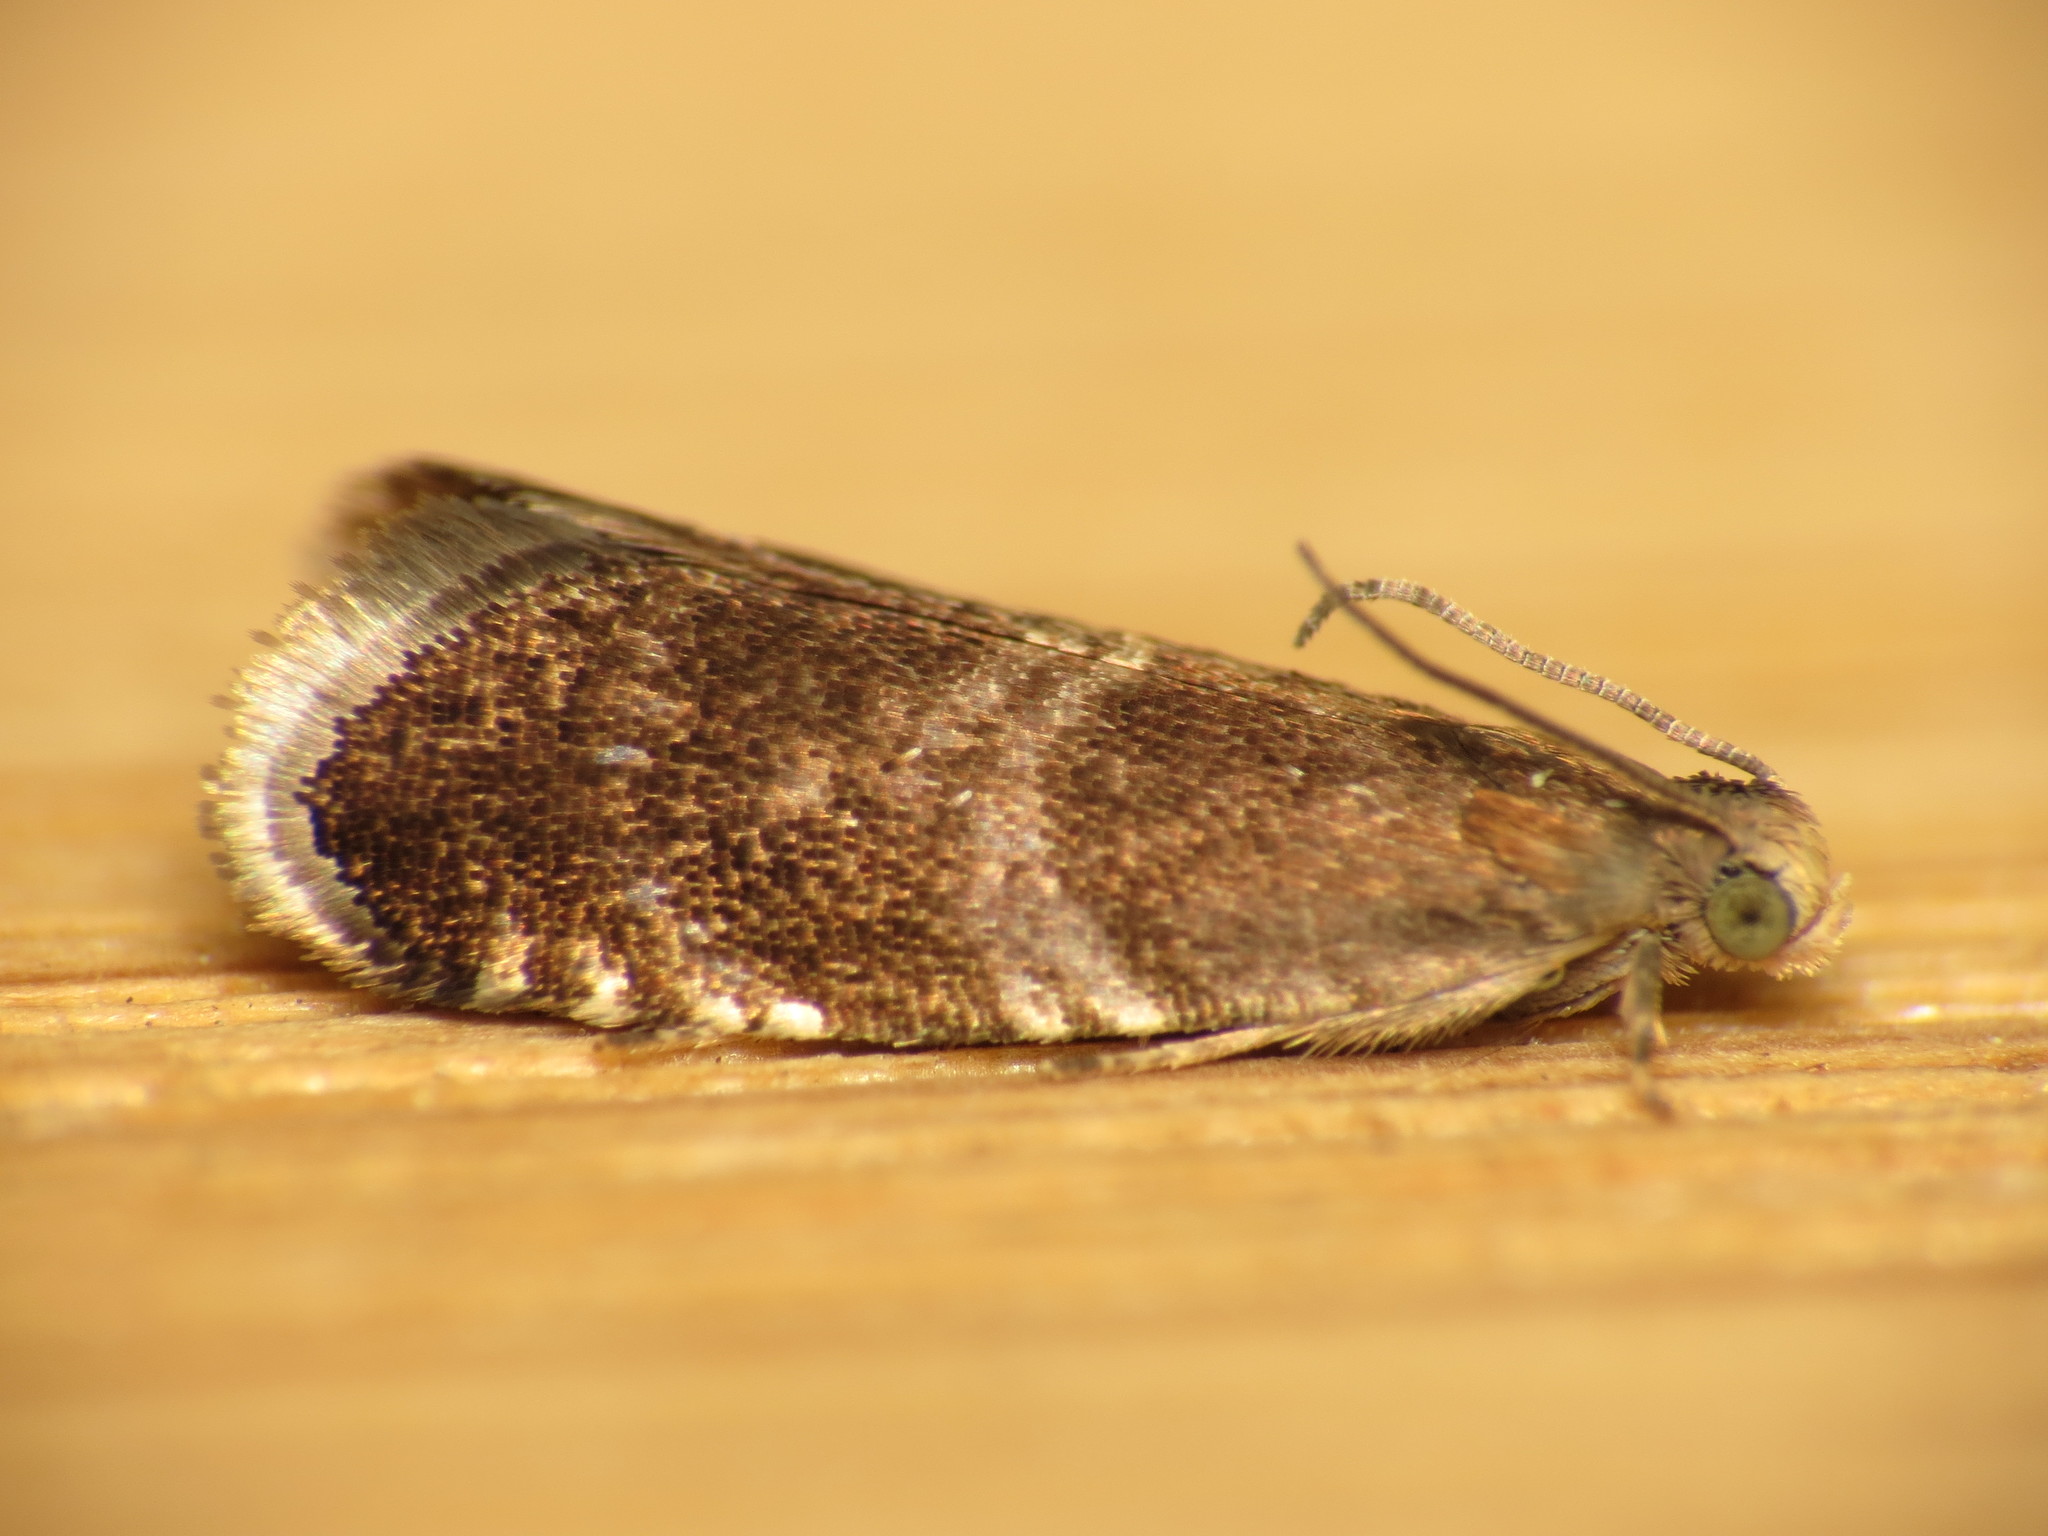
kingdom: Animalia
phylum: Arthropoda
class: Insecta
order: Lepidoptera
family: Tortricidae
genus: Strophedra
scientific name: Strophedra weirana
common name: Little beech piercer
